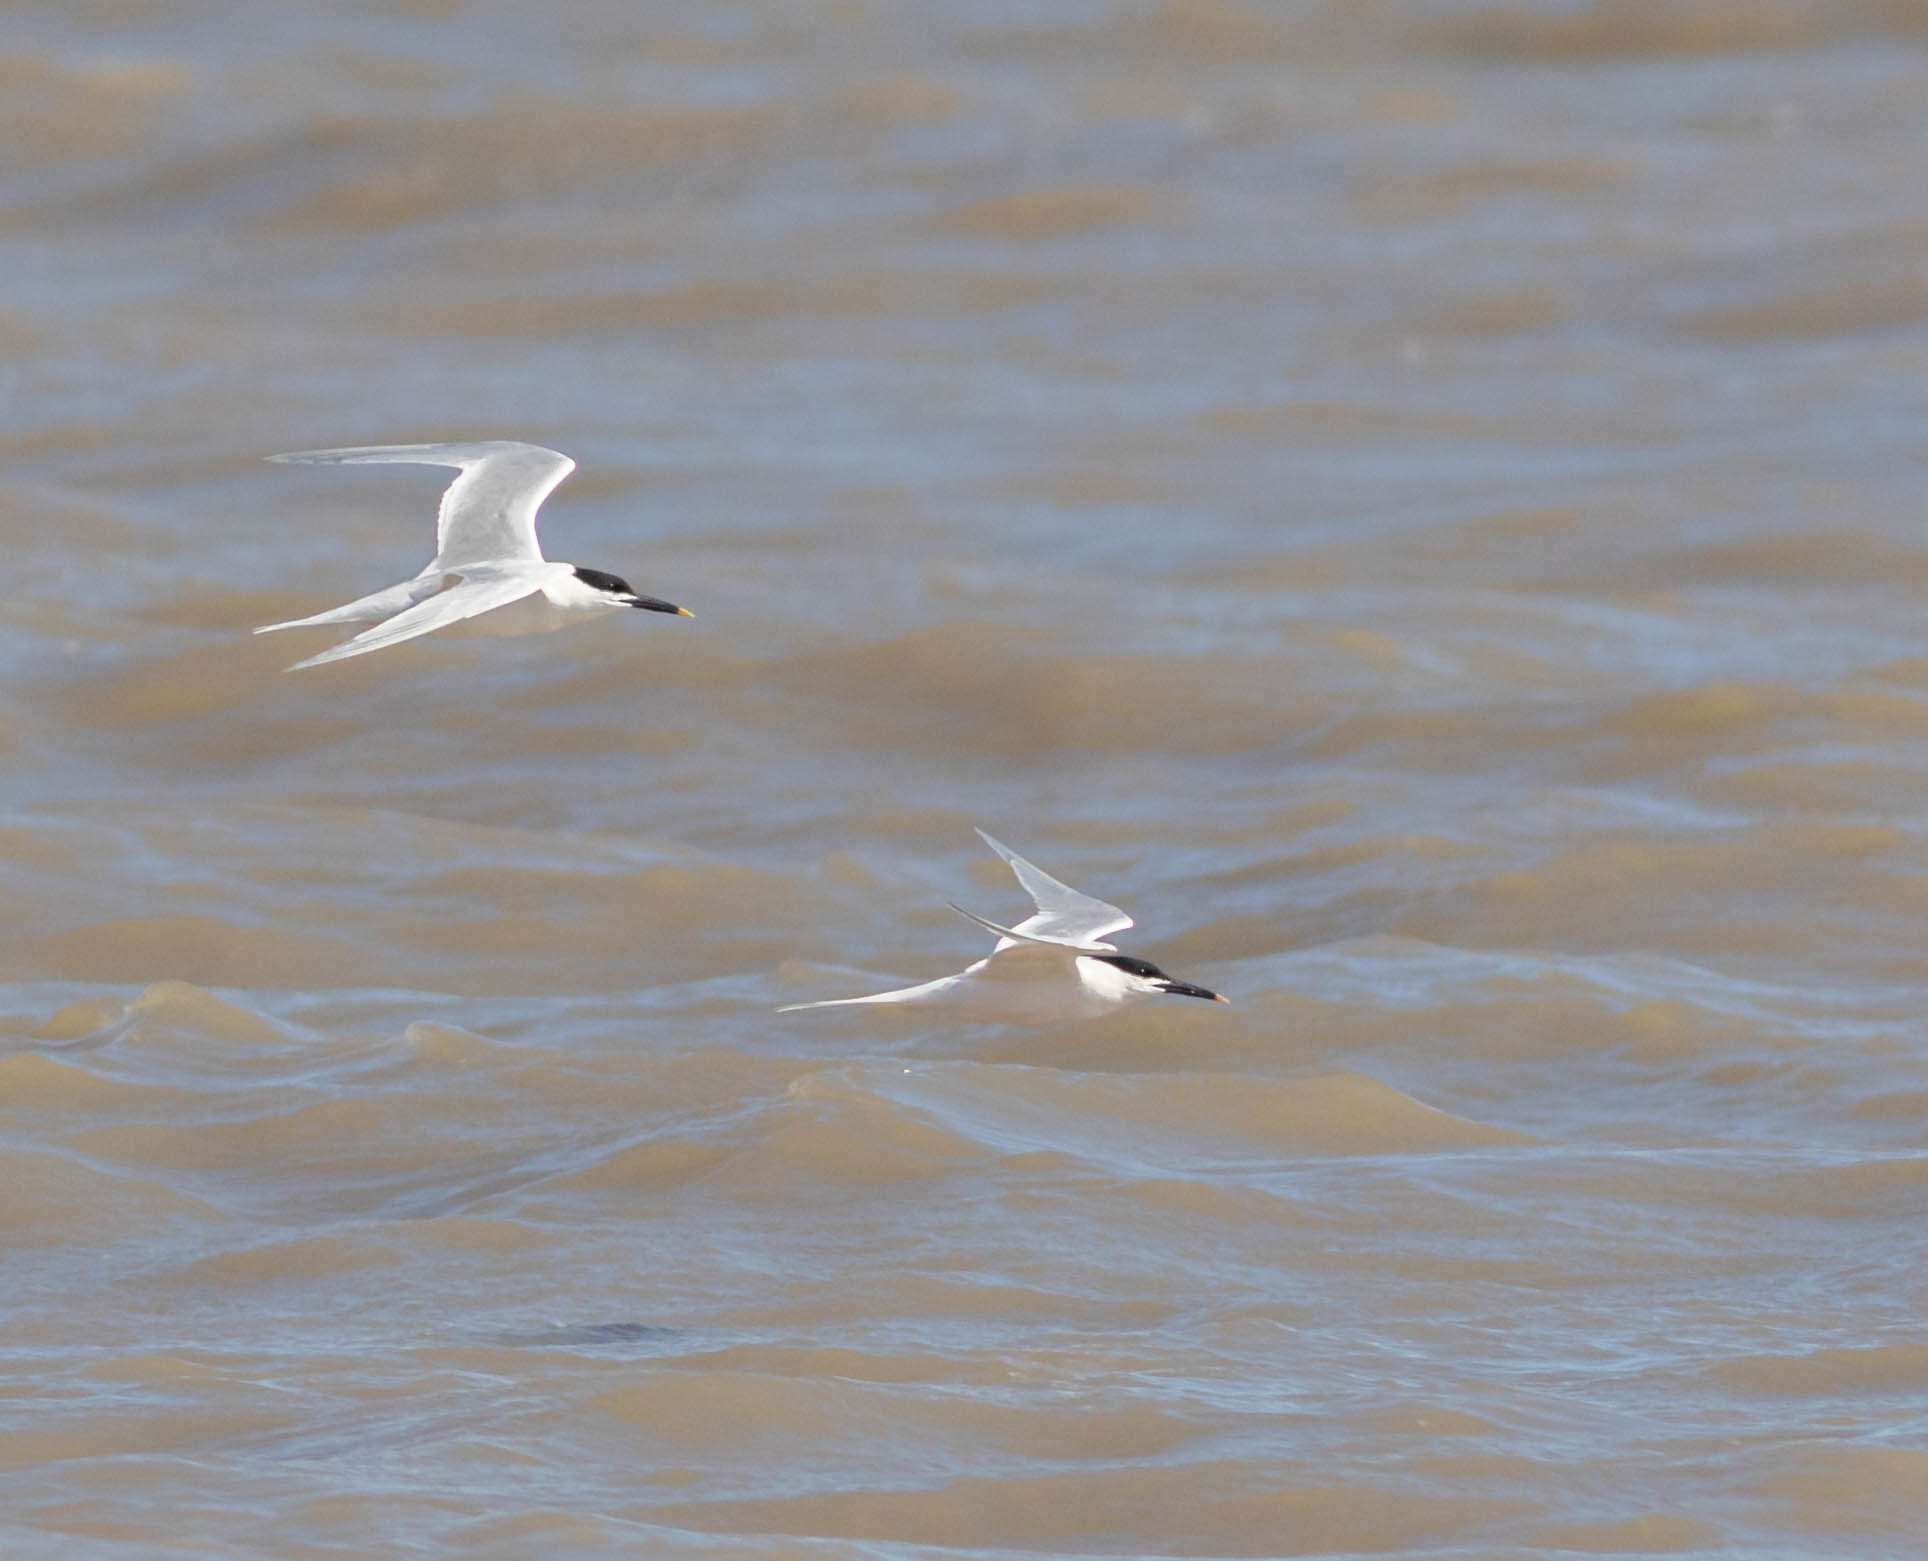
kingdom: Animalia
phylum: Chordata
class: Aves
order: Charadriiformes
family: Laridae
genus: Thalasseus
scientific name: Thalasseus sandvicensis
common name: Sandwich tern
